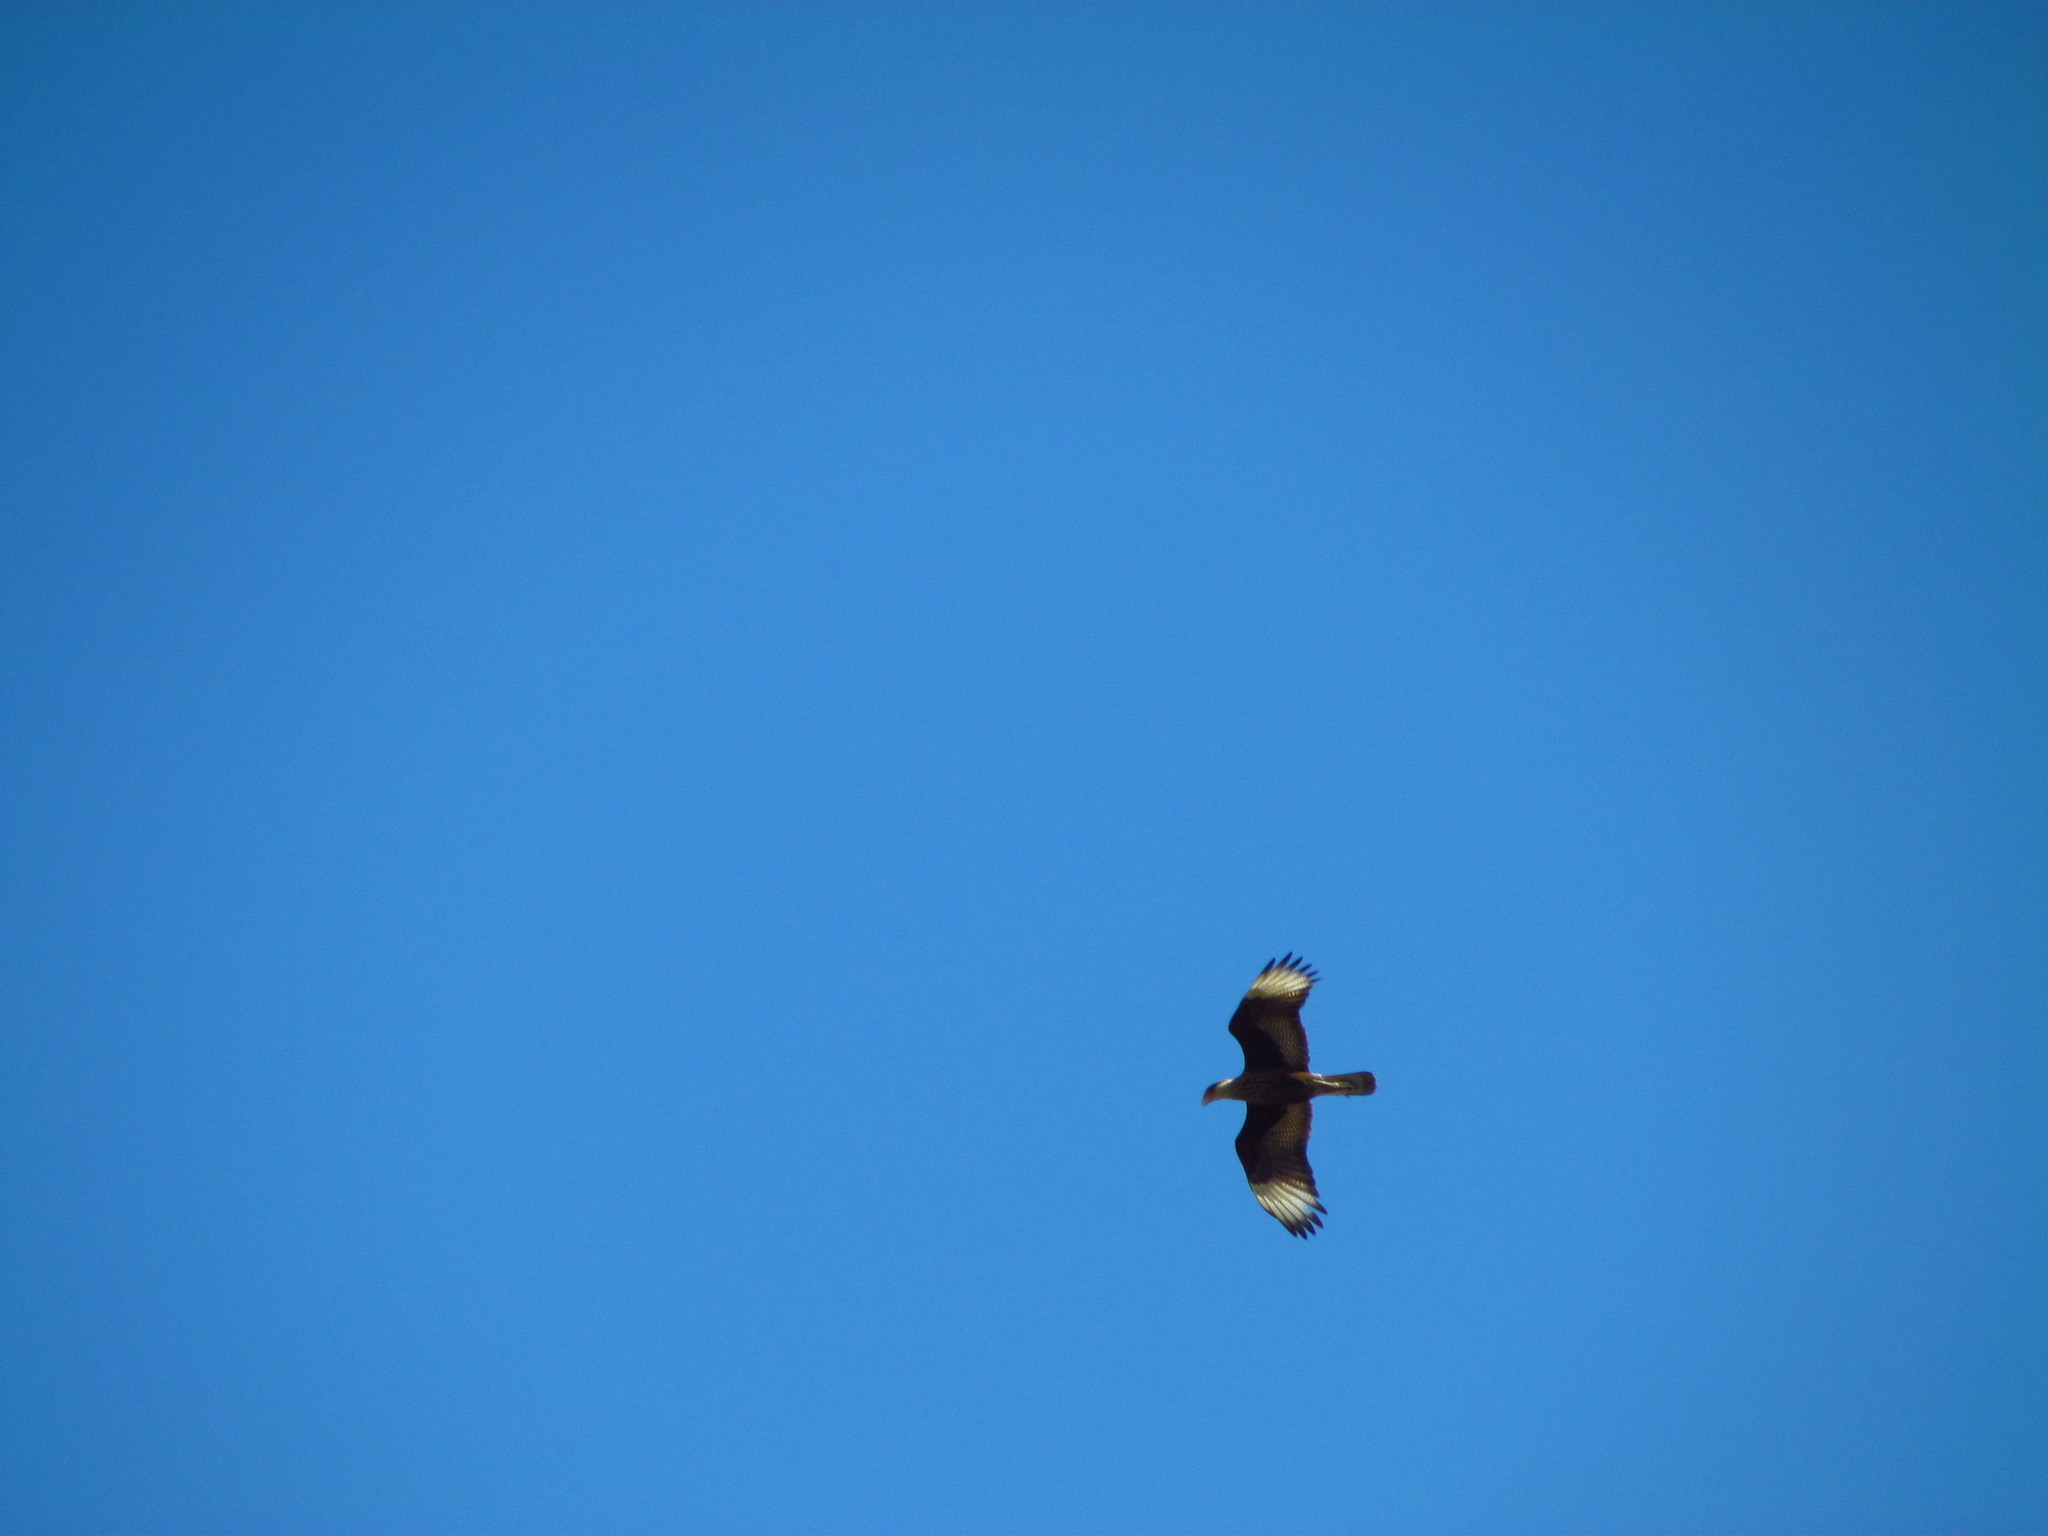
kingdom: Animalia
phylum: Chordata
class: Aves
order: Falconiformes
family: Falconidae
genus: Caracara
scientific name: Caracara plancus
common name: Southern caracara
